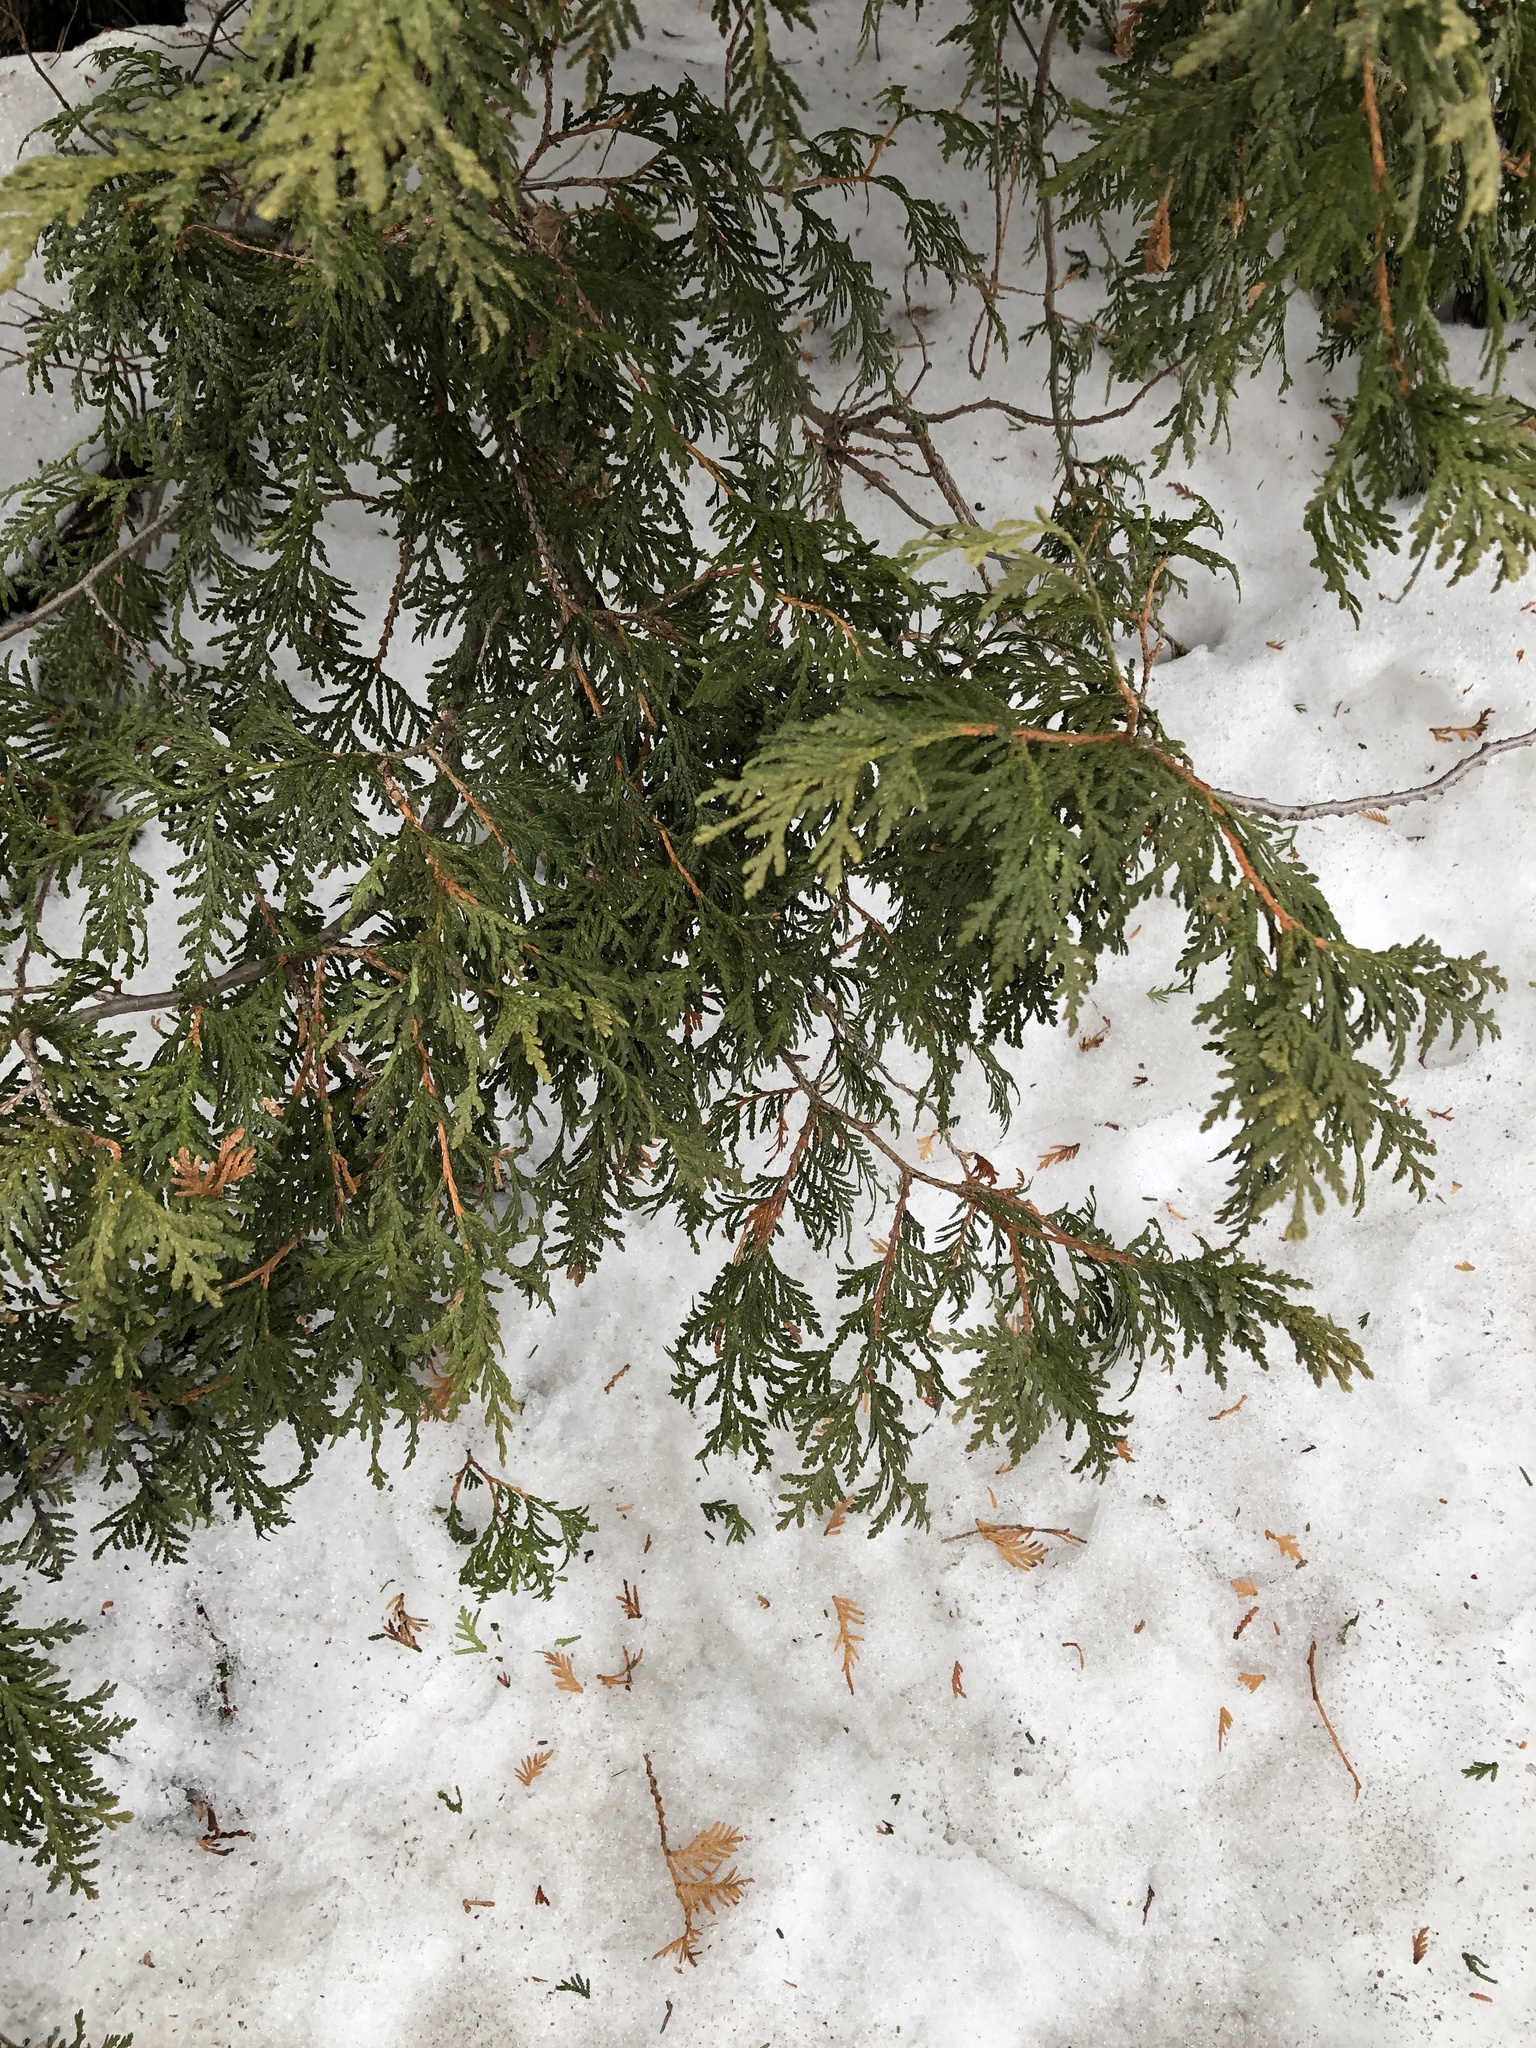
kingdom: Plantae
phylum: Tracheophyta
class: Pinopsida
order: Pinales
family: Cupressaceae
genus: Thuja
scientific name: Thuja occidentalis
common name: Northern white-cedar
